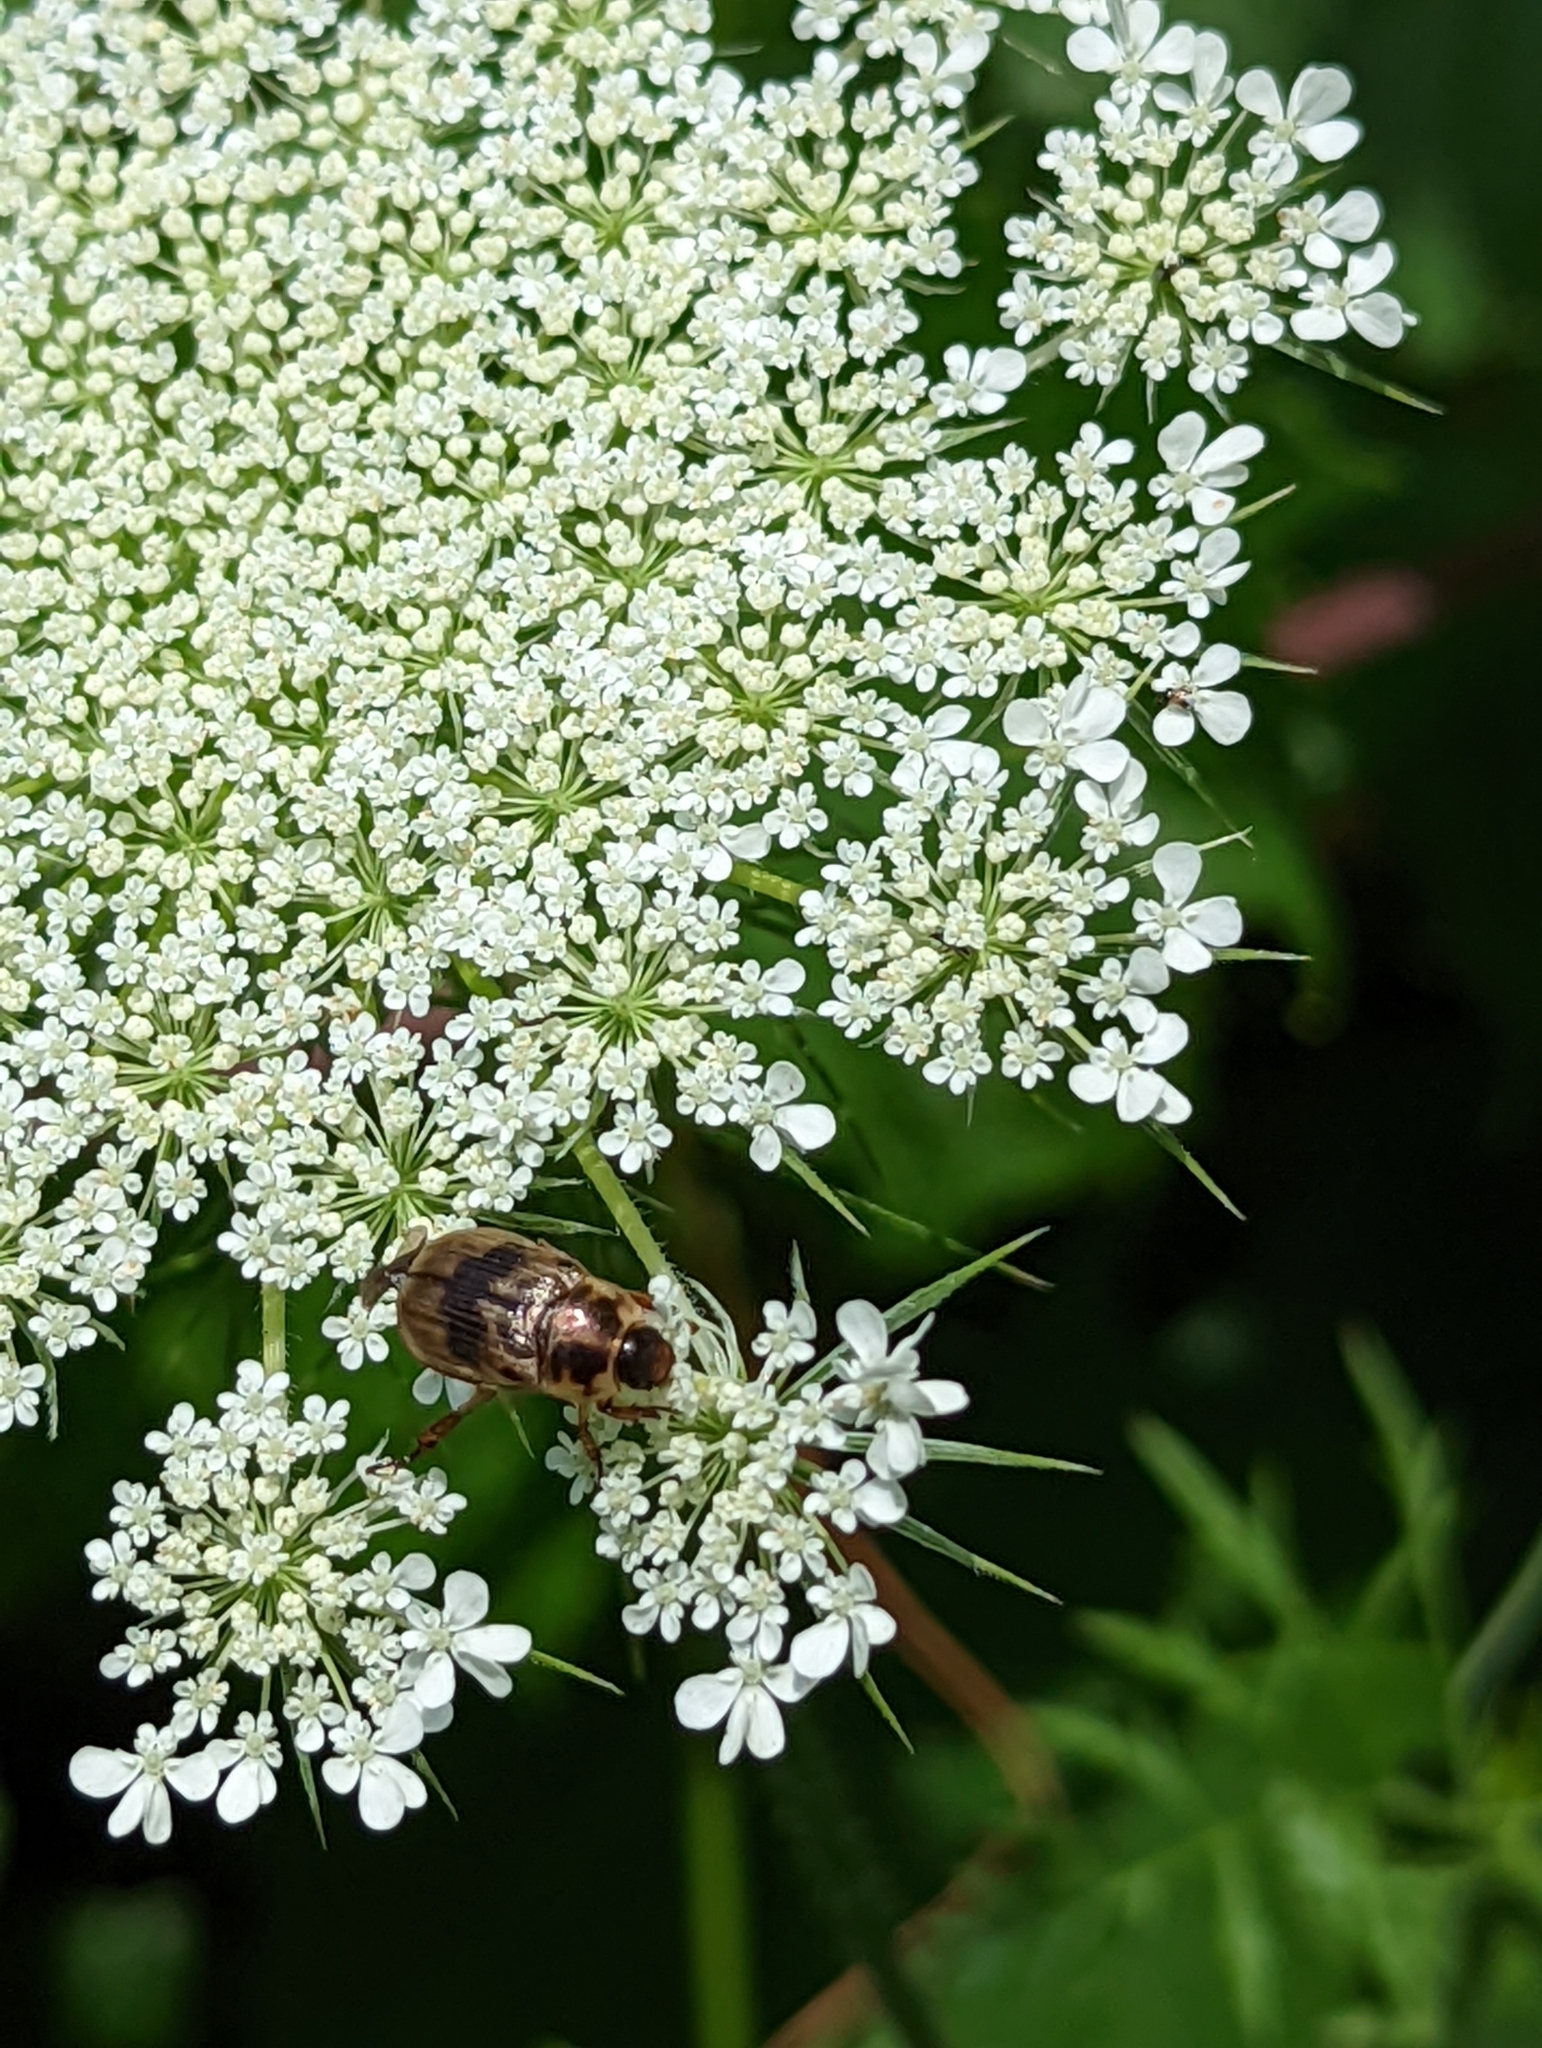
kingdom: Animalia
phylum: Arthropoda
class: Insecta
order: Coleoptera
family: Scarabaeidae
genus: Exomala
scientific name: Exomala orientalis
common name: Oriental beetle
